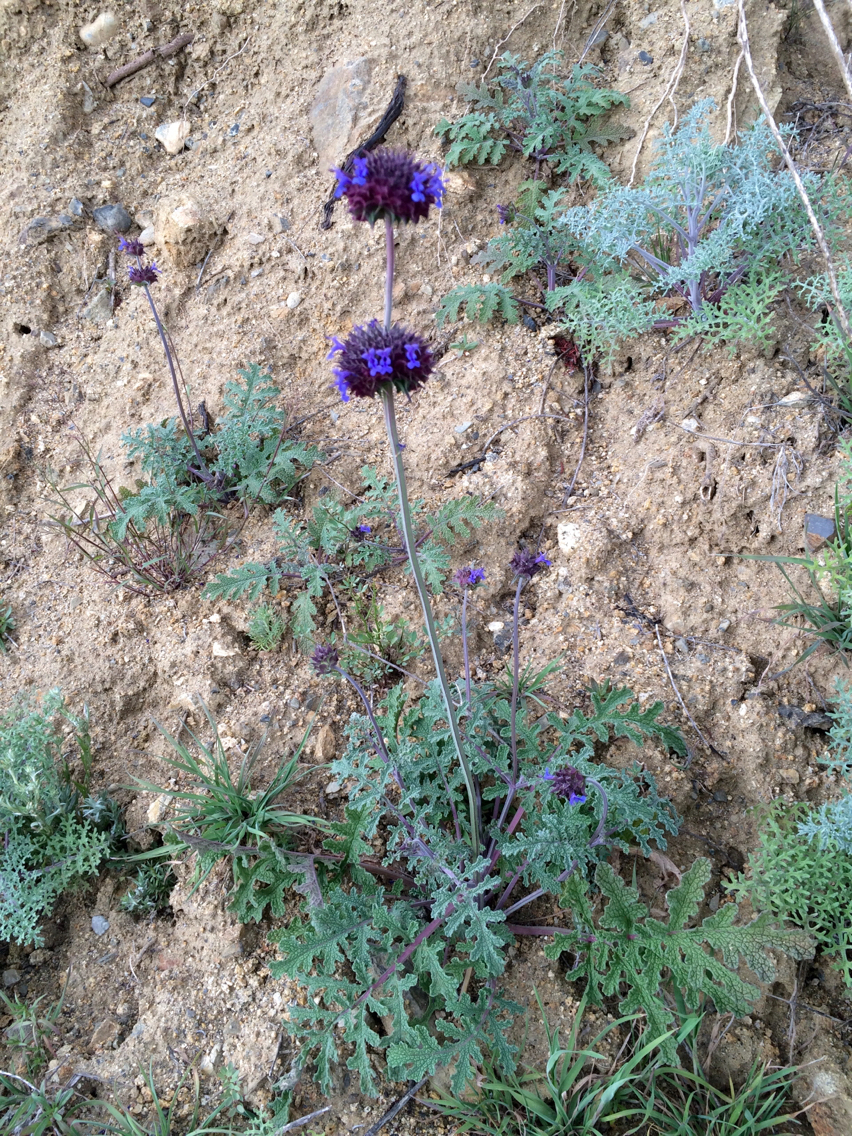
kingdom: Plantae
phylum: Tracheophyta
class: Magnoliopsida
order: Lamiales
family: Lamiaceae
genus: Salvia
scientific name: Salvia columbariae
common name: Chia
